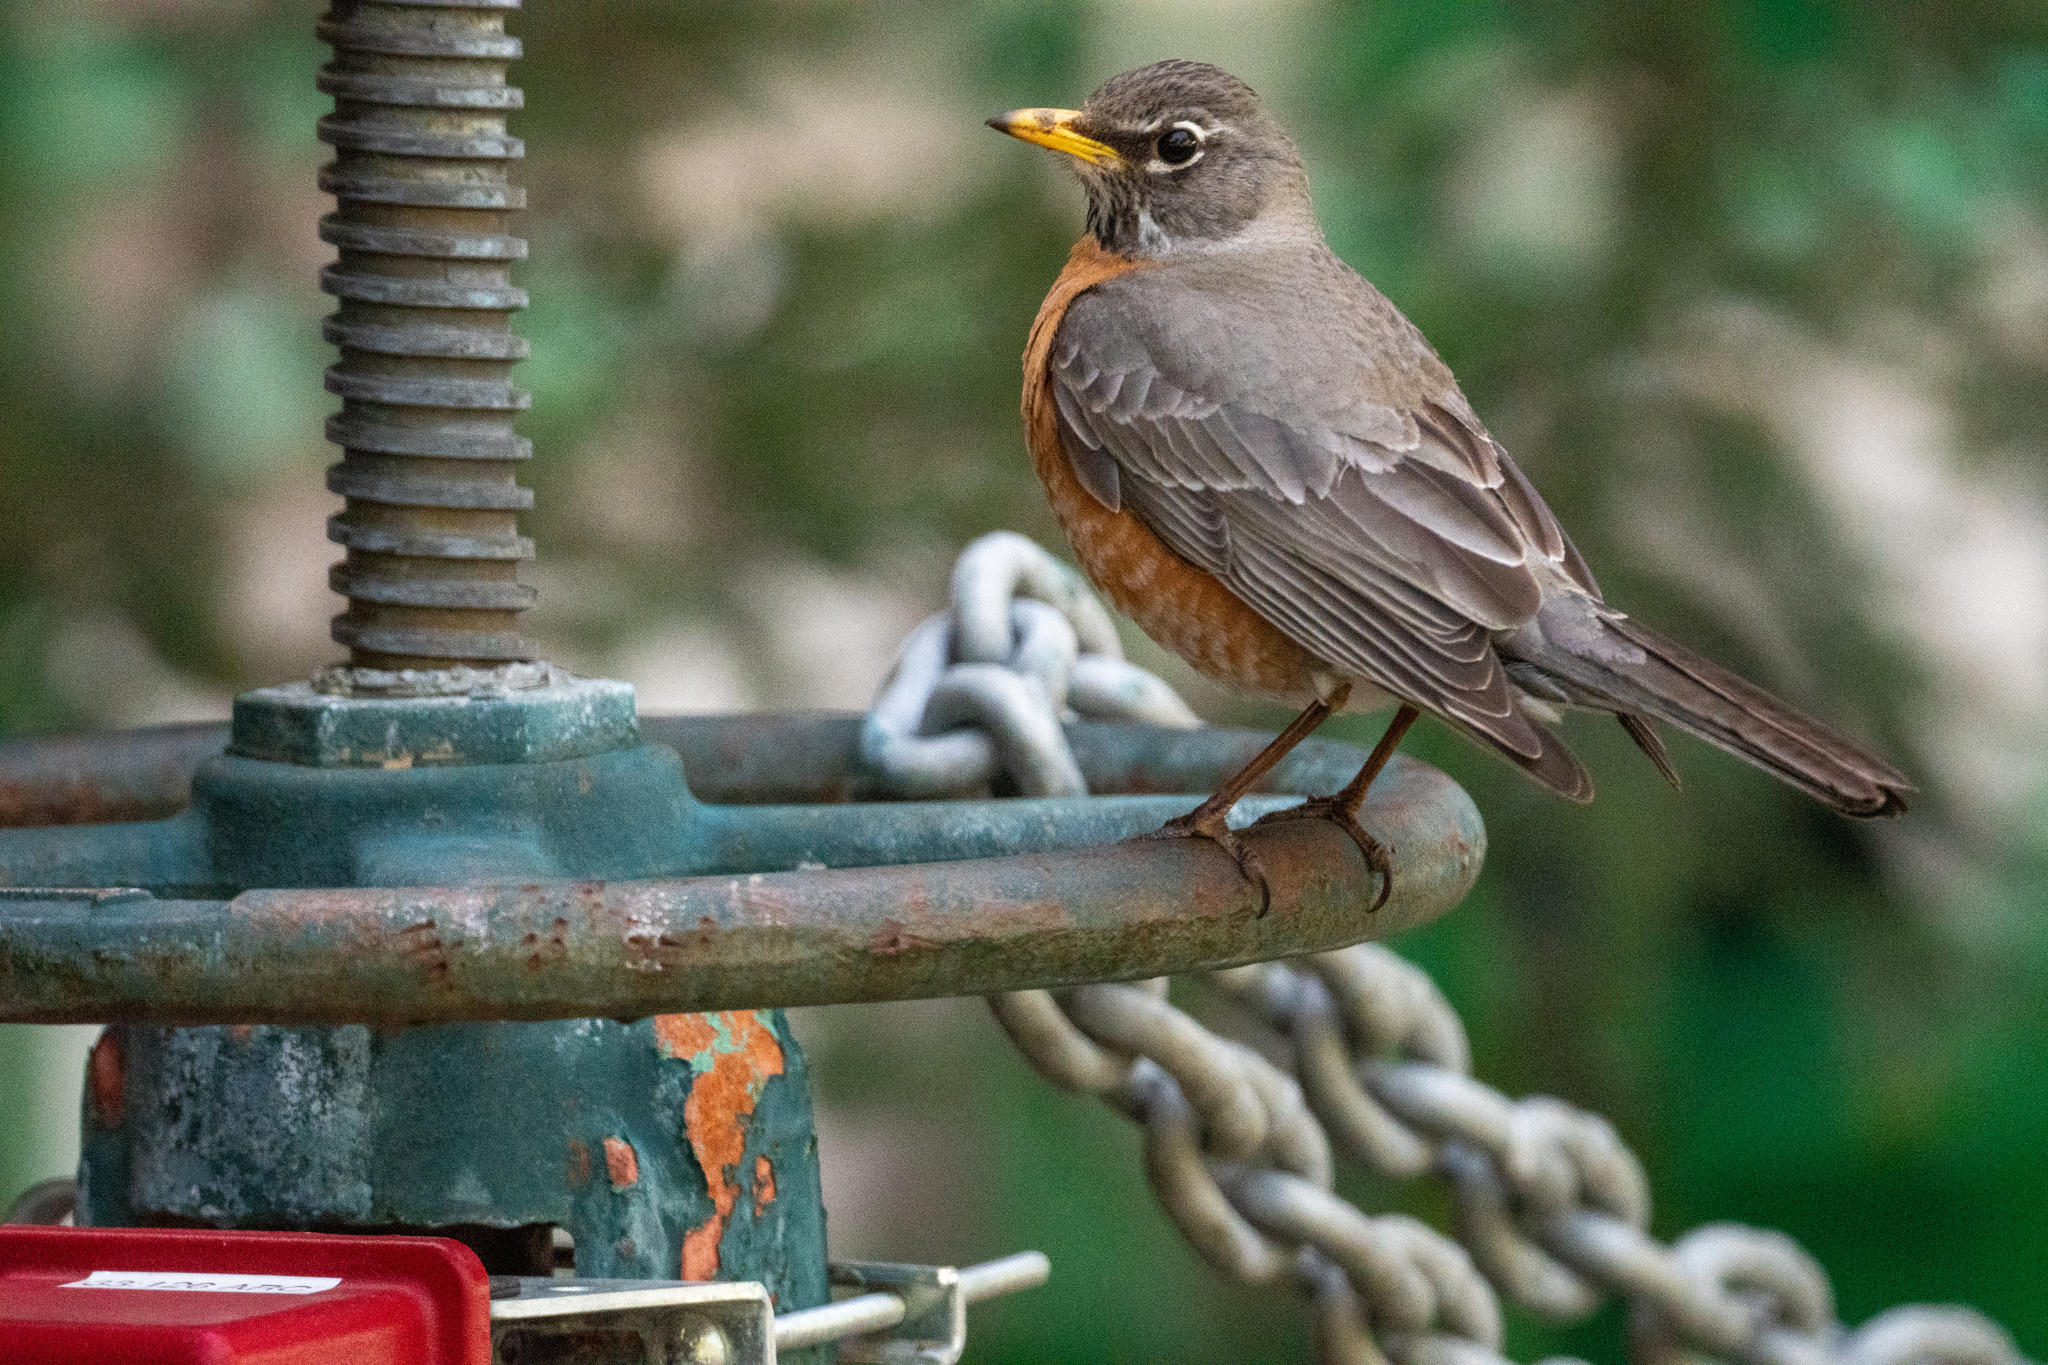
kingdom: Animalia
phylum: Chordata
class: Aves
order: Passeriformes
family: Turdidae
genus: Turdus
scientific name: Turdus migratorius
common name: American robin
